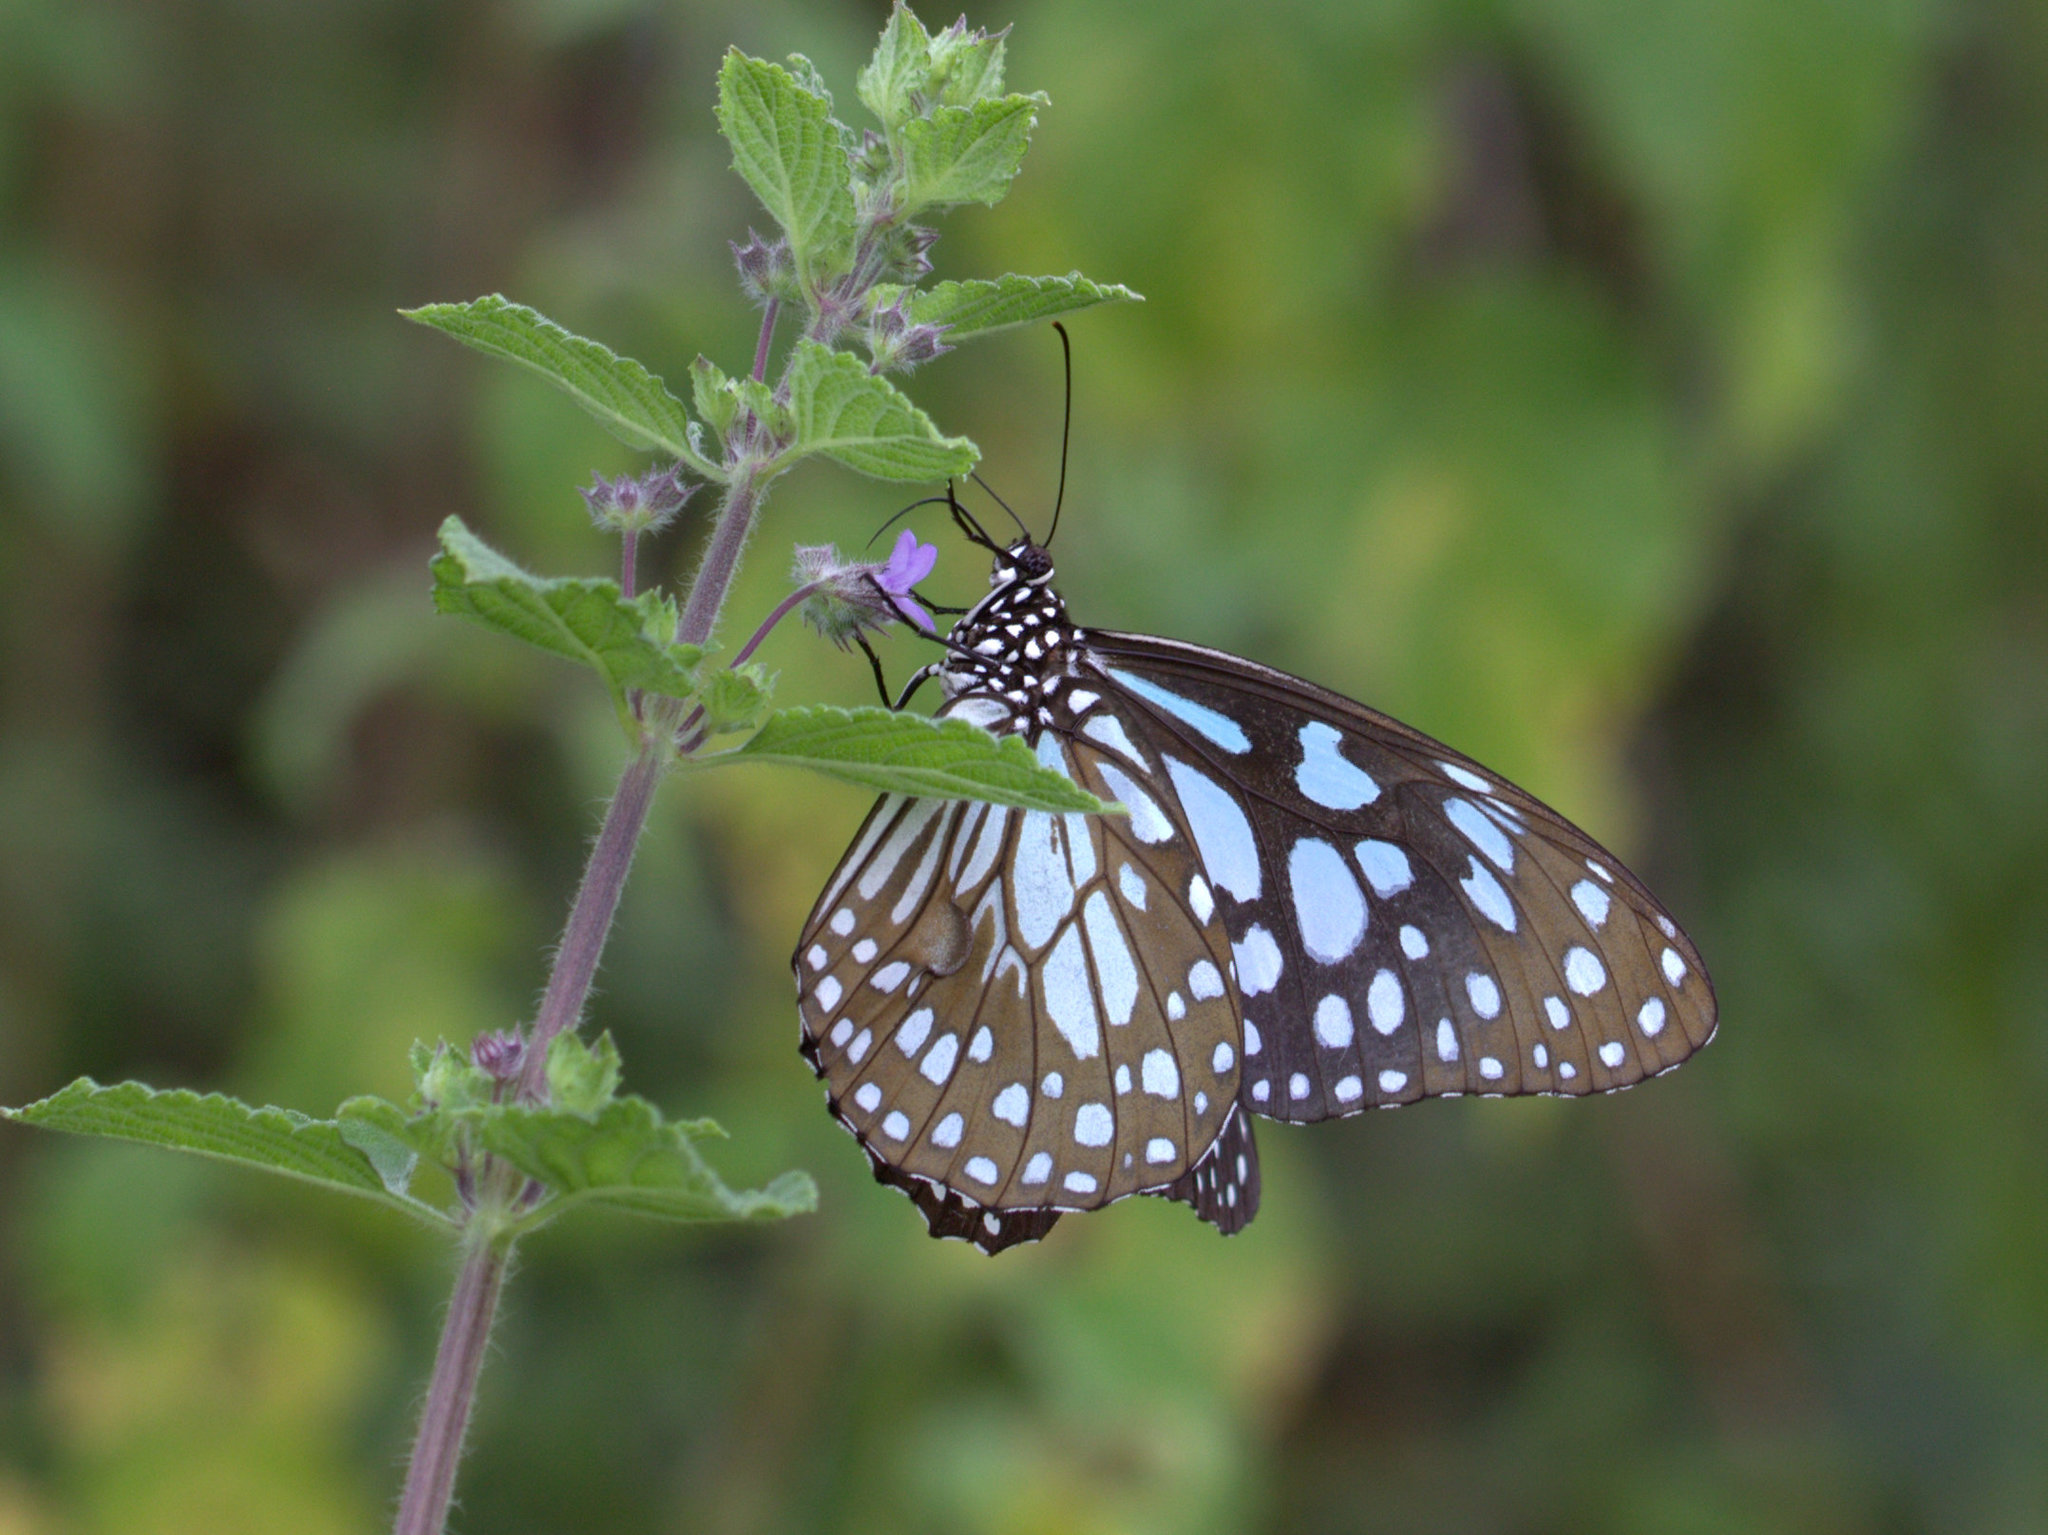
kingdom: Animalia
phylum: Arthropoda
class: Insecta
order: Lepidoptera
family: Nymphalidae
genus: Tirumala
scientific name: Tirumala limniace
